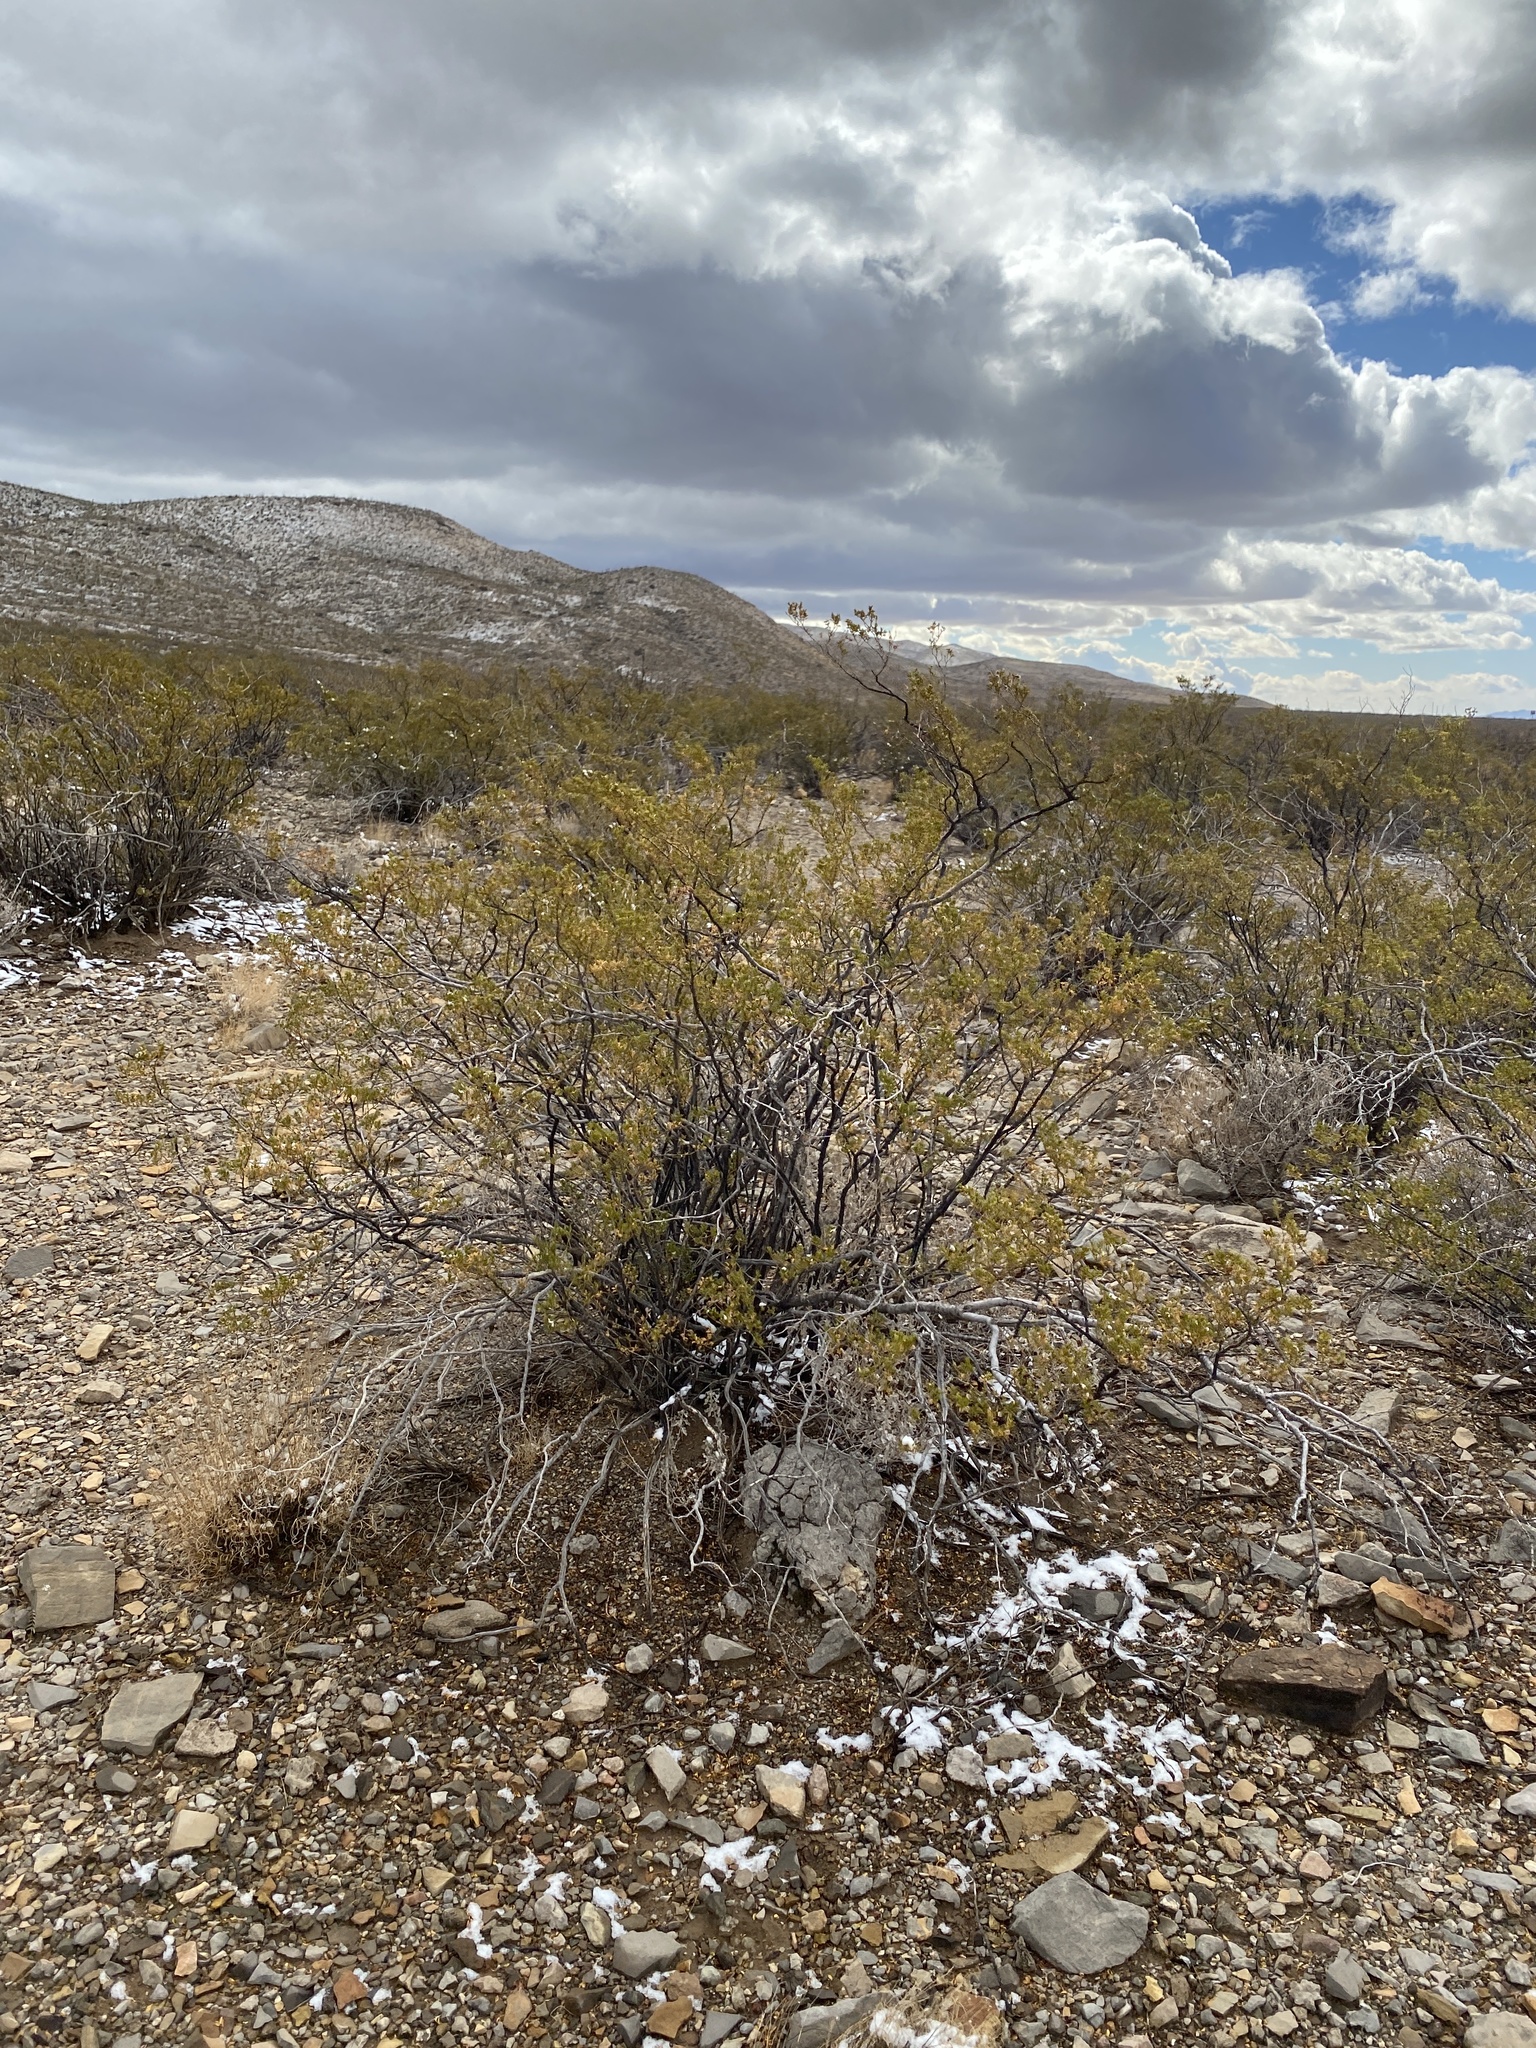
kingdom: Plantae
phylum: Tracheophyta
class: Magnoliopsida
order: Zygophyllales
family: Zygophyllaceae
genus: Larrea
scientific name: Larrea tridentata
